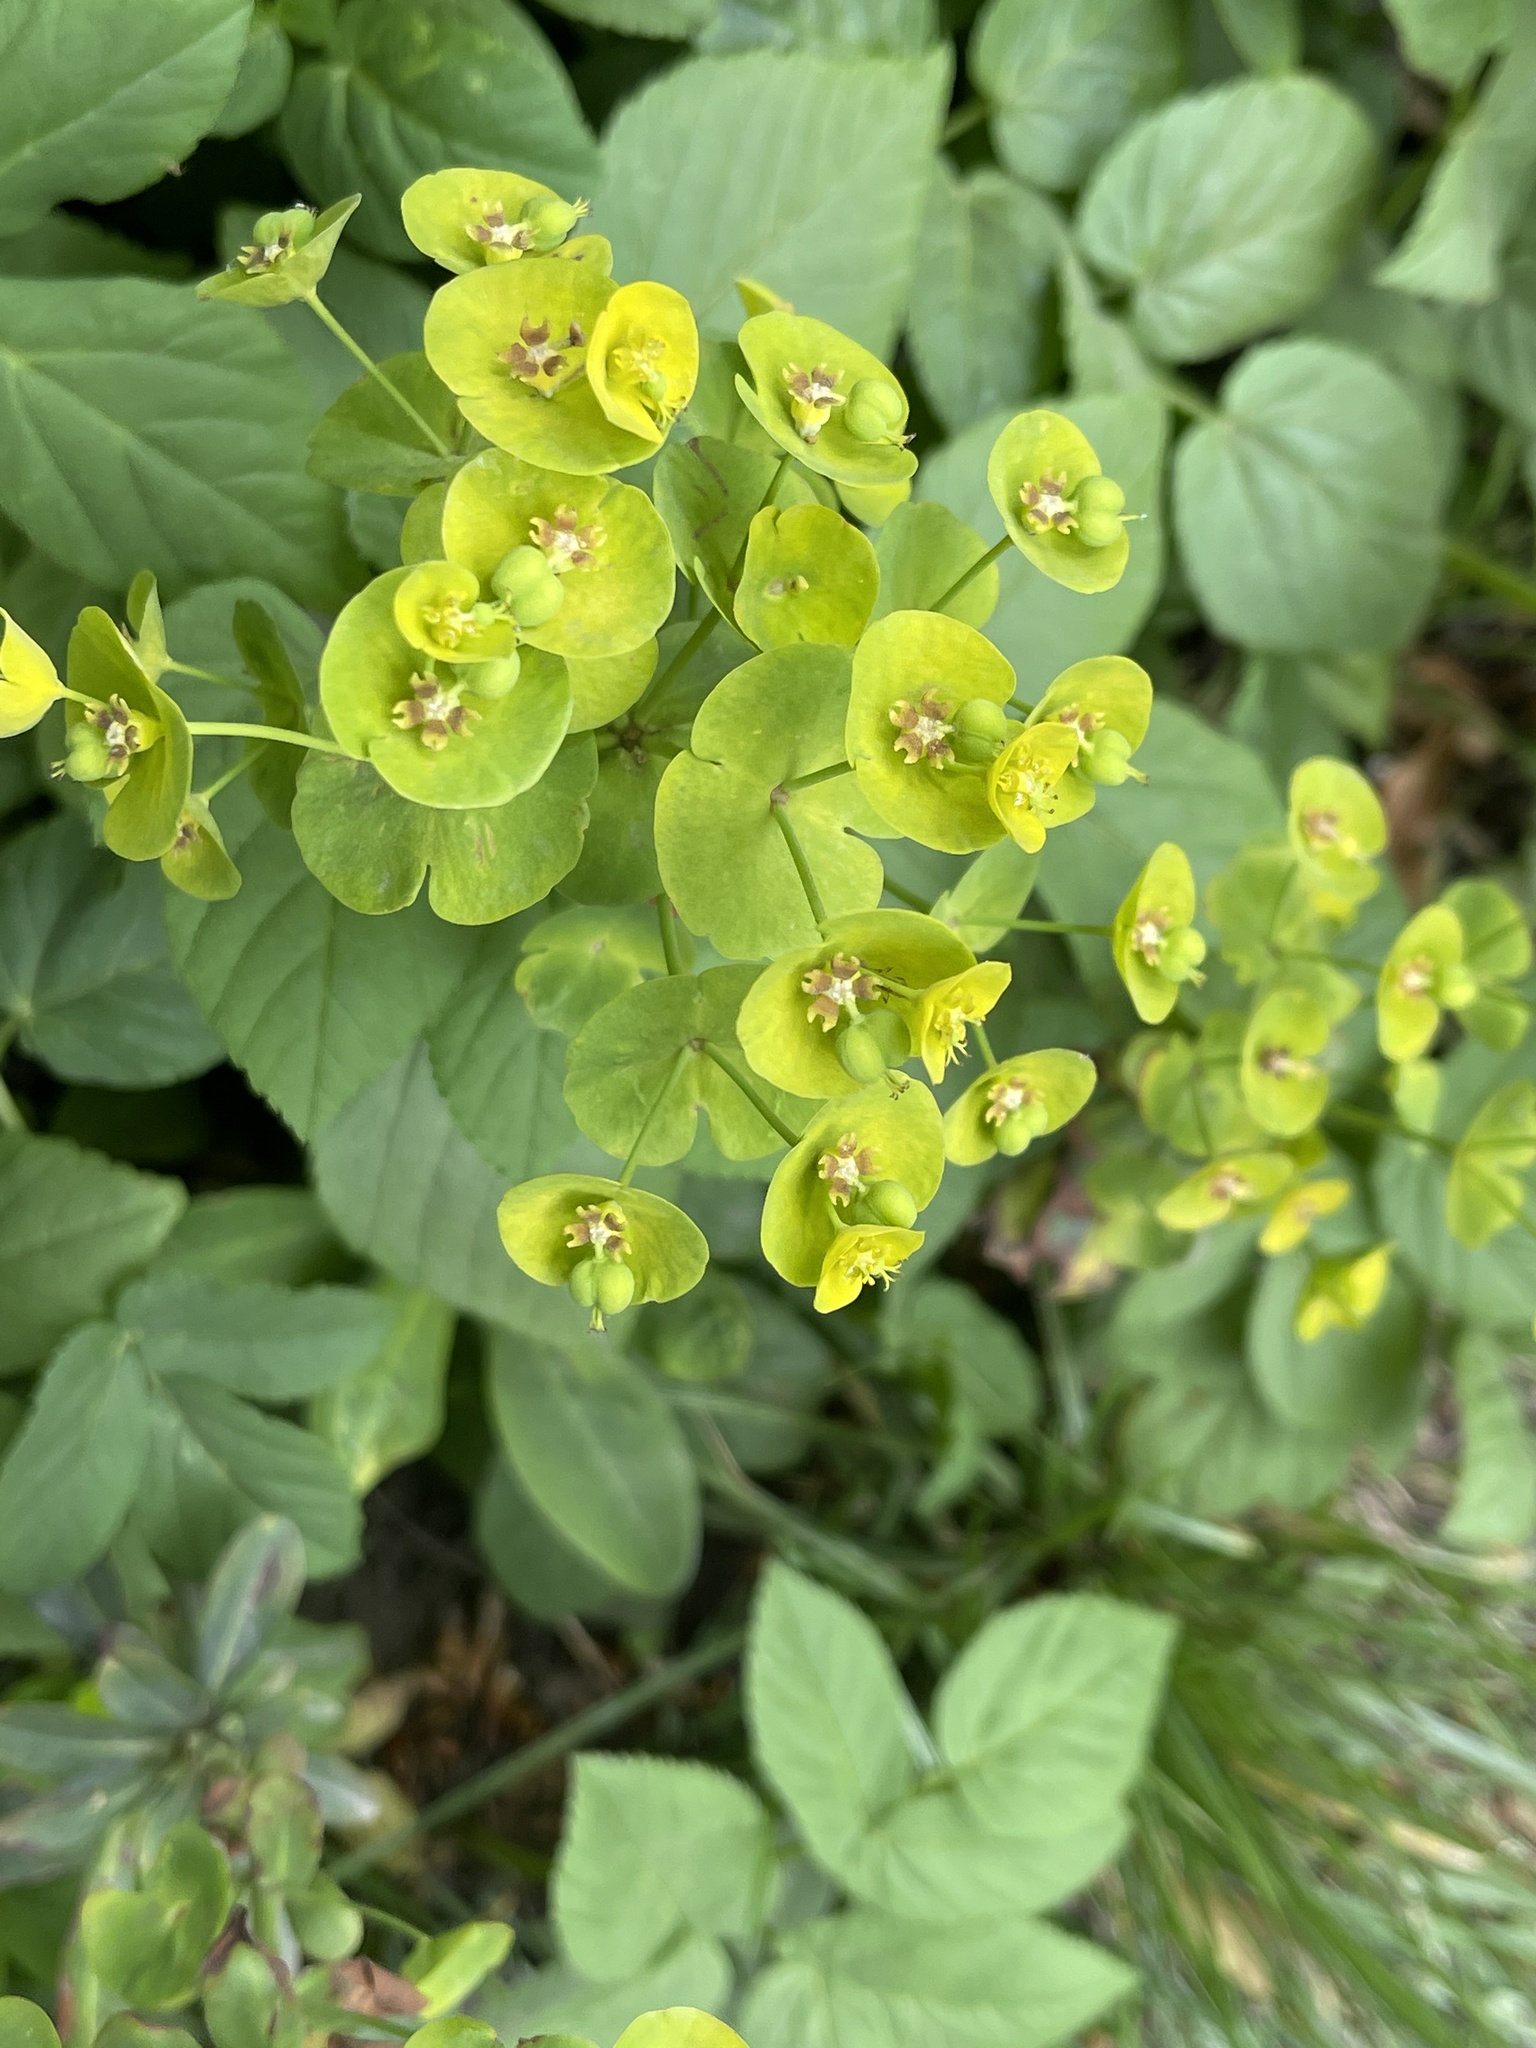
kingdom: Plantae
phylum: Tracheophyta
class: Magnoliopsida
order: Malpighiales
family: Euphorbiaceae
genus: Euphorbia
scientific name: Euphorbia amygdaloides
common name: Wood spurge
